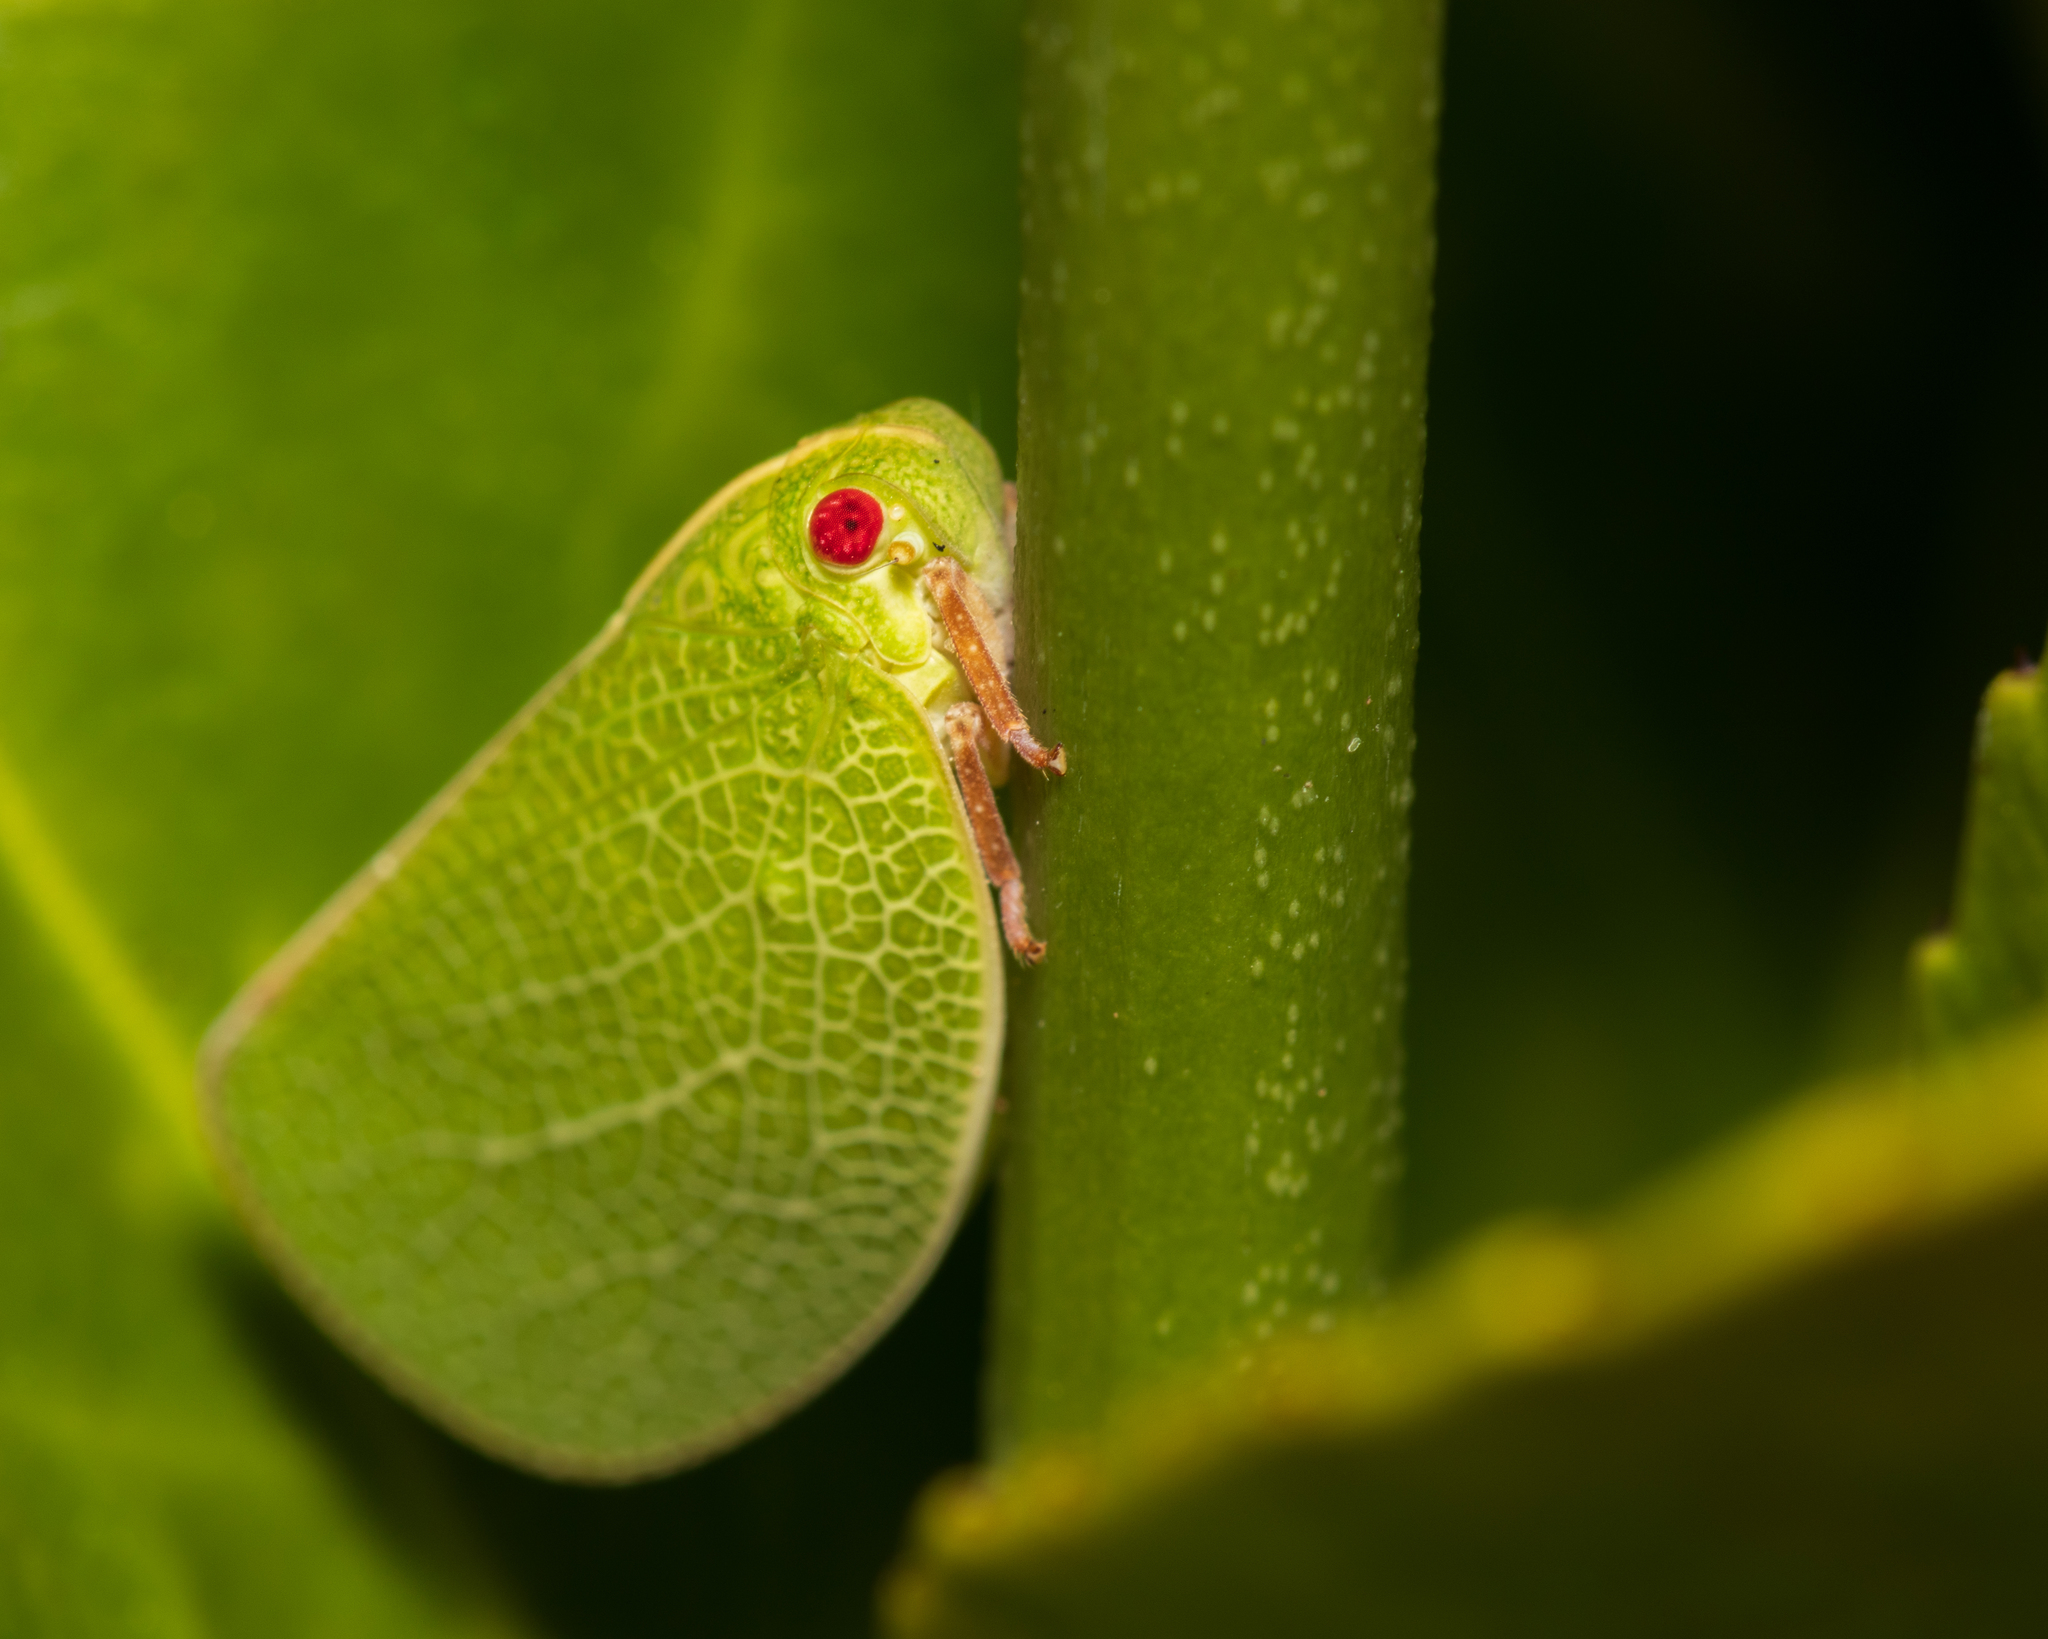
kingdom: Animalia
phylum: Arthropoda
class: Insecta
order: Hemiptera
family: Acanaloniidae
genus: Acanalonia
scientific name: Acanalonia servillei
